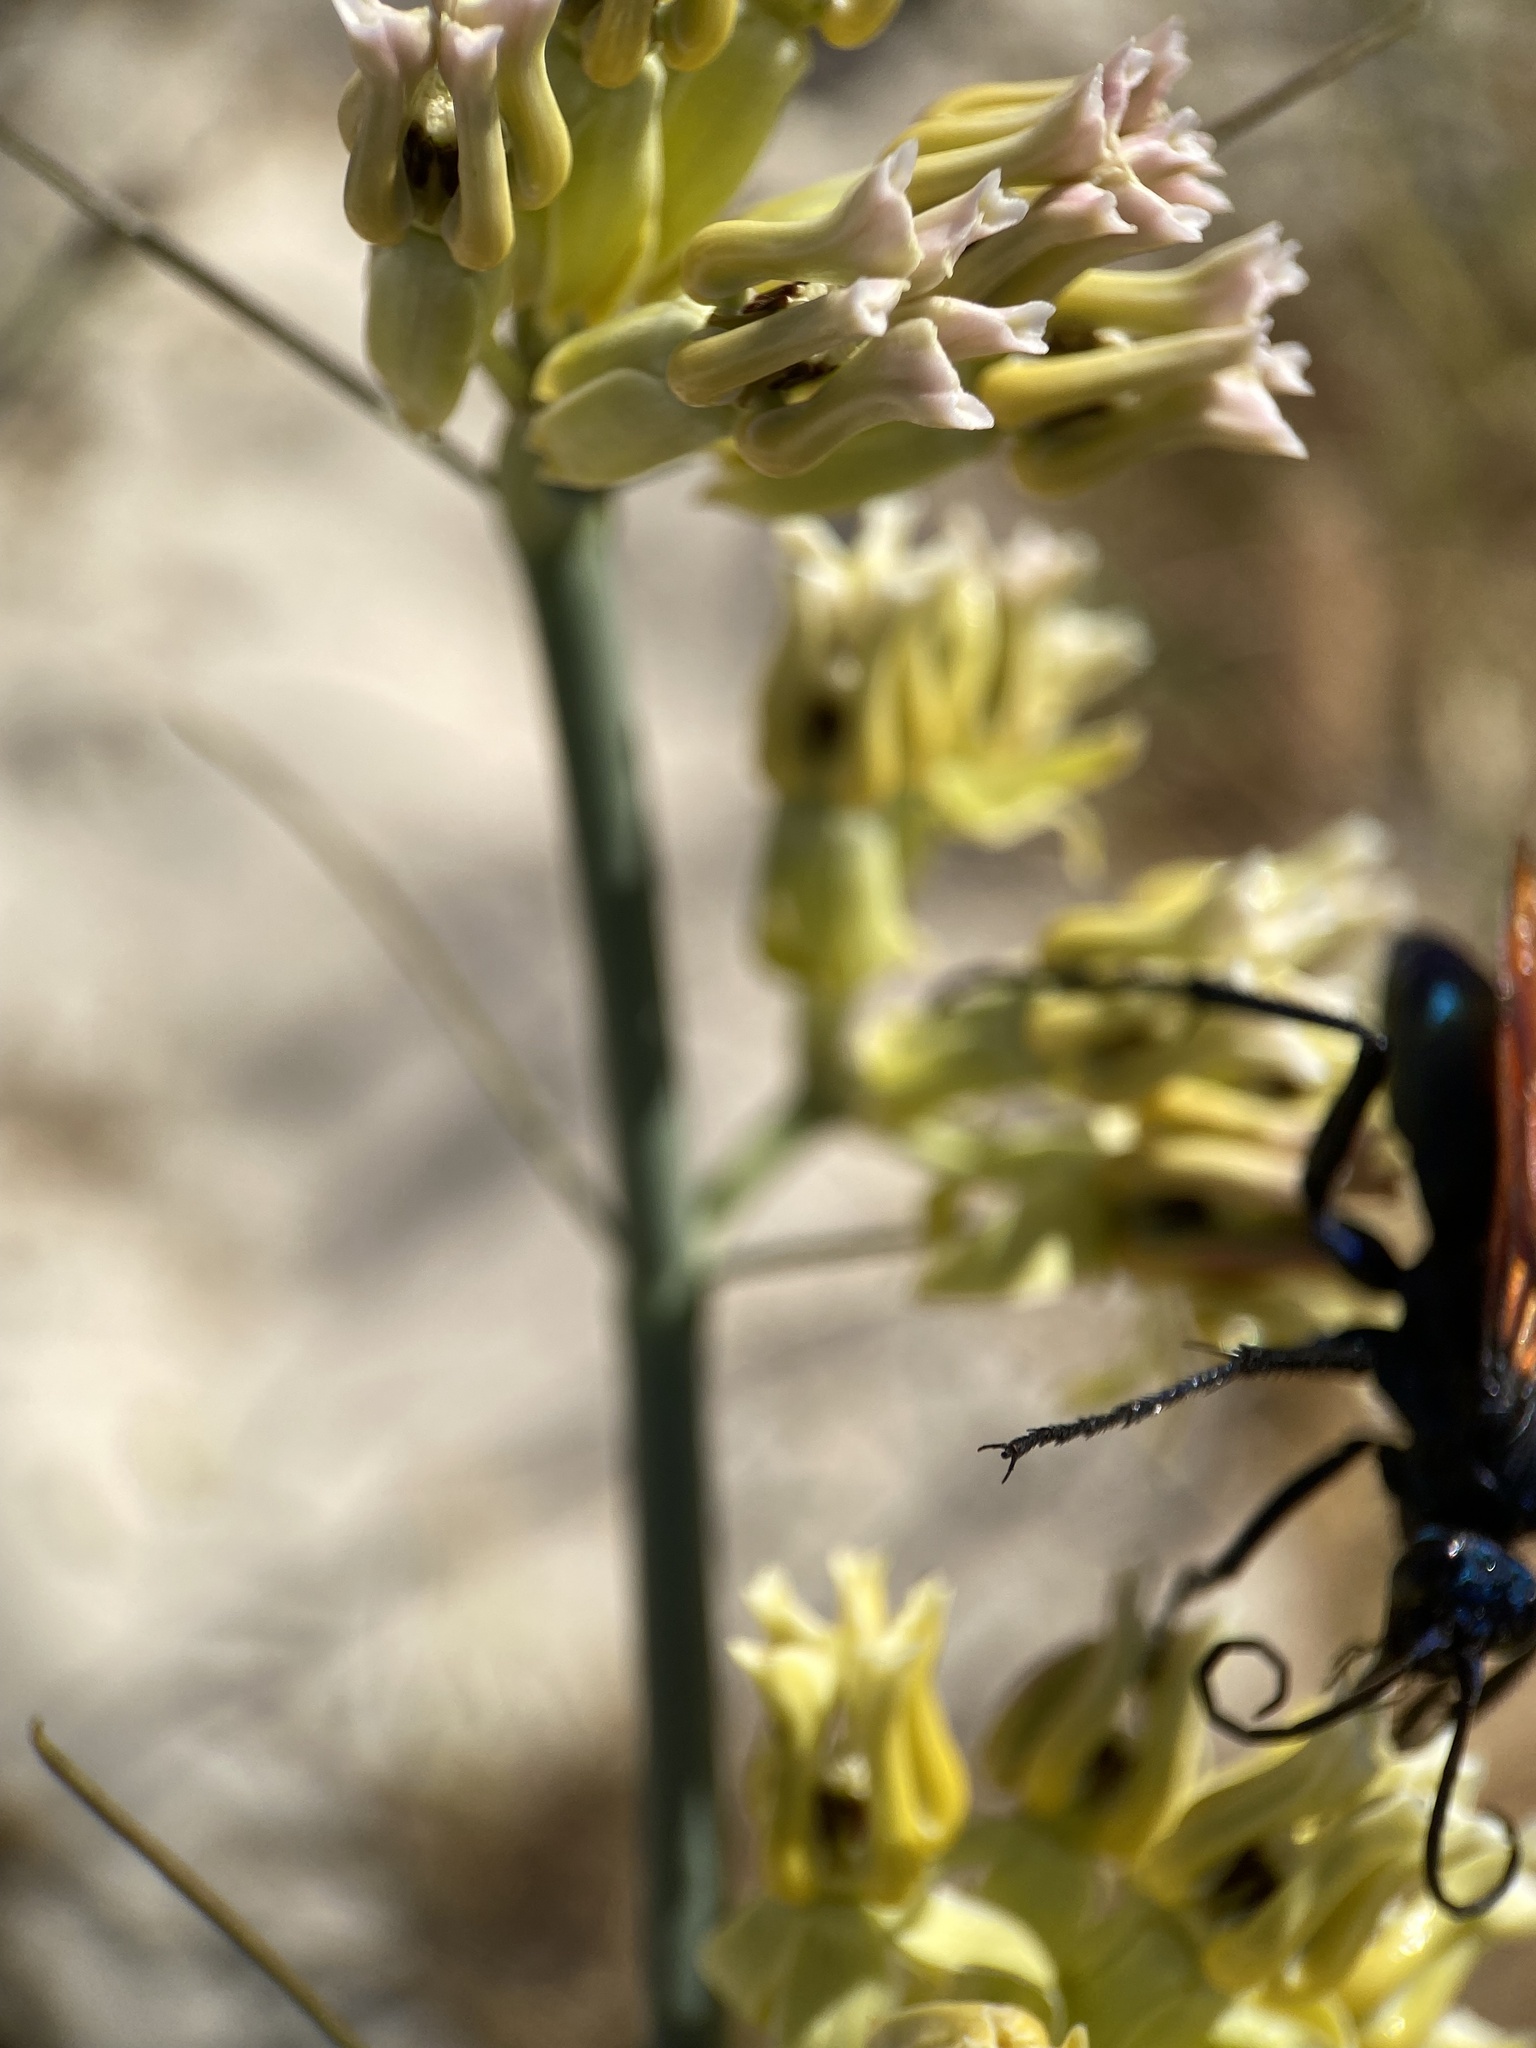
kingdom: Plantae
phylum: Tracheophyta
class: Magnoliopsida
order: Gentianales
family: Apocynaceae
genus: Asclepias
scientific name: Asclepias subulata
